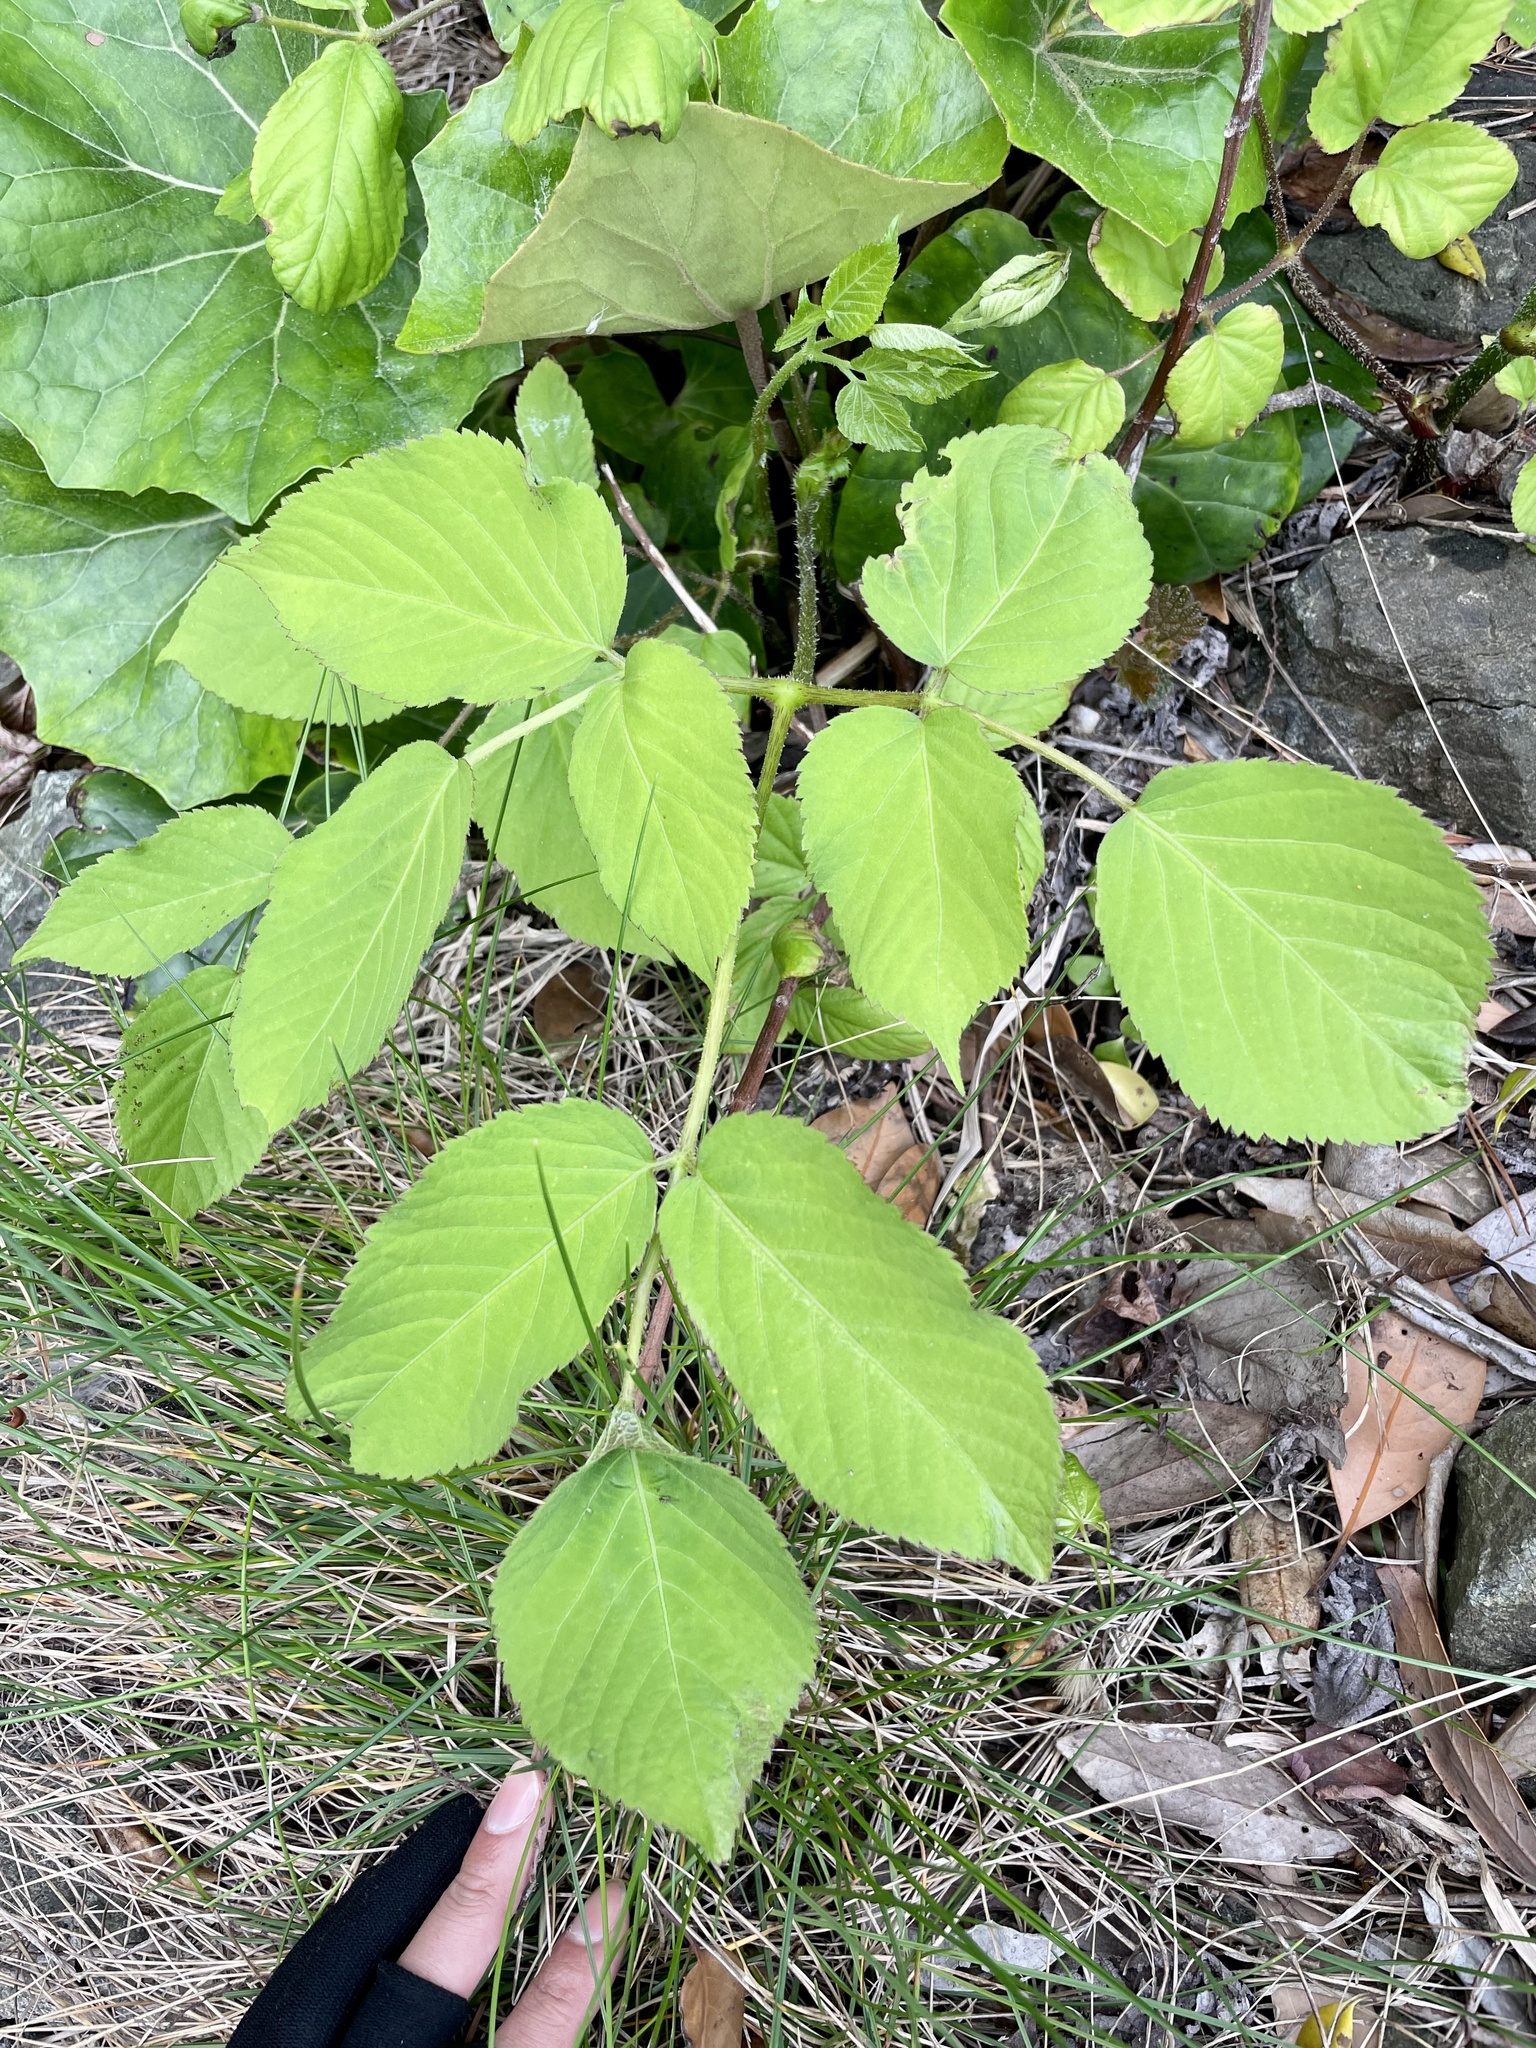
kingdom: Plantae
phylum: Tracheophyta
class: Magnoliopsida
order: Apiales
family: Araliaceae
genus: Aralia
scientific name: Aralia cordata
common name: Udo
